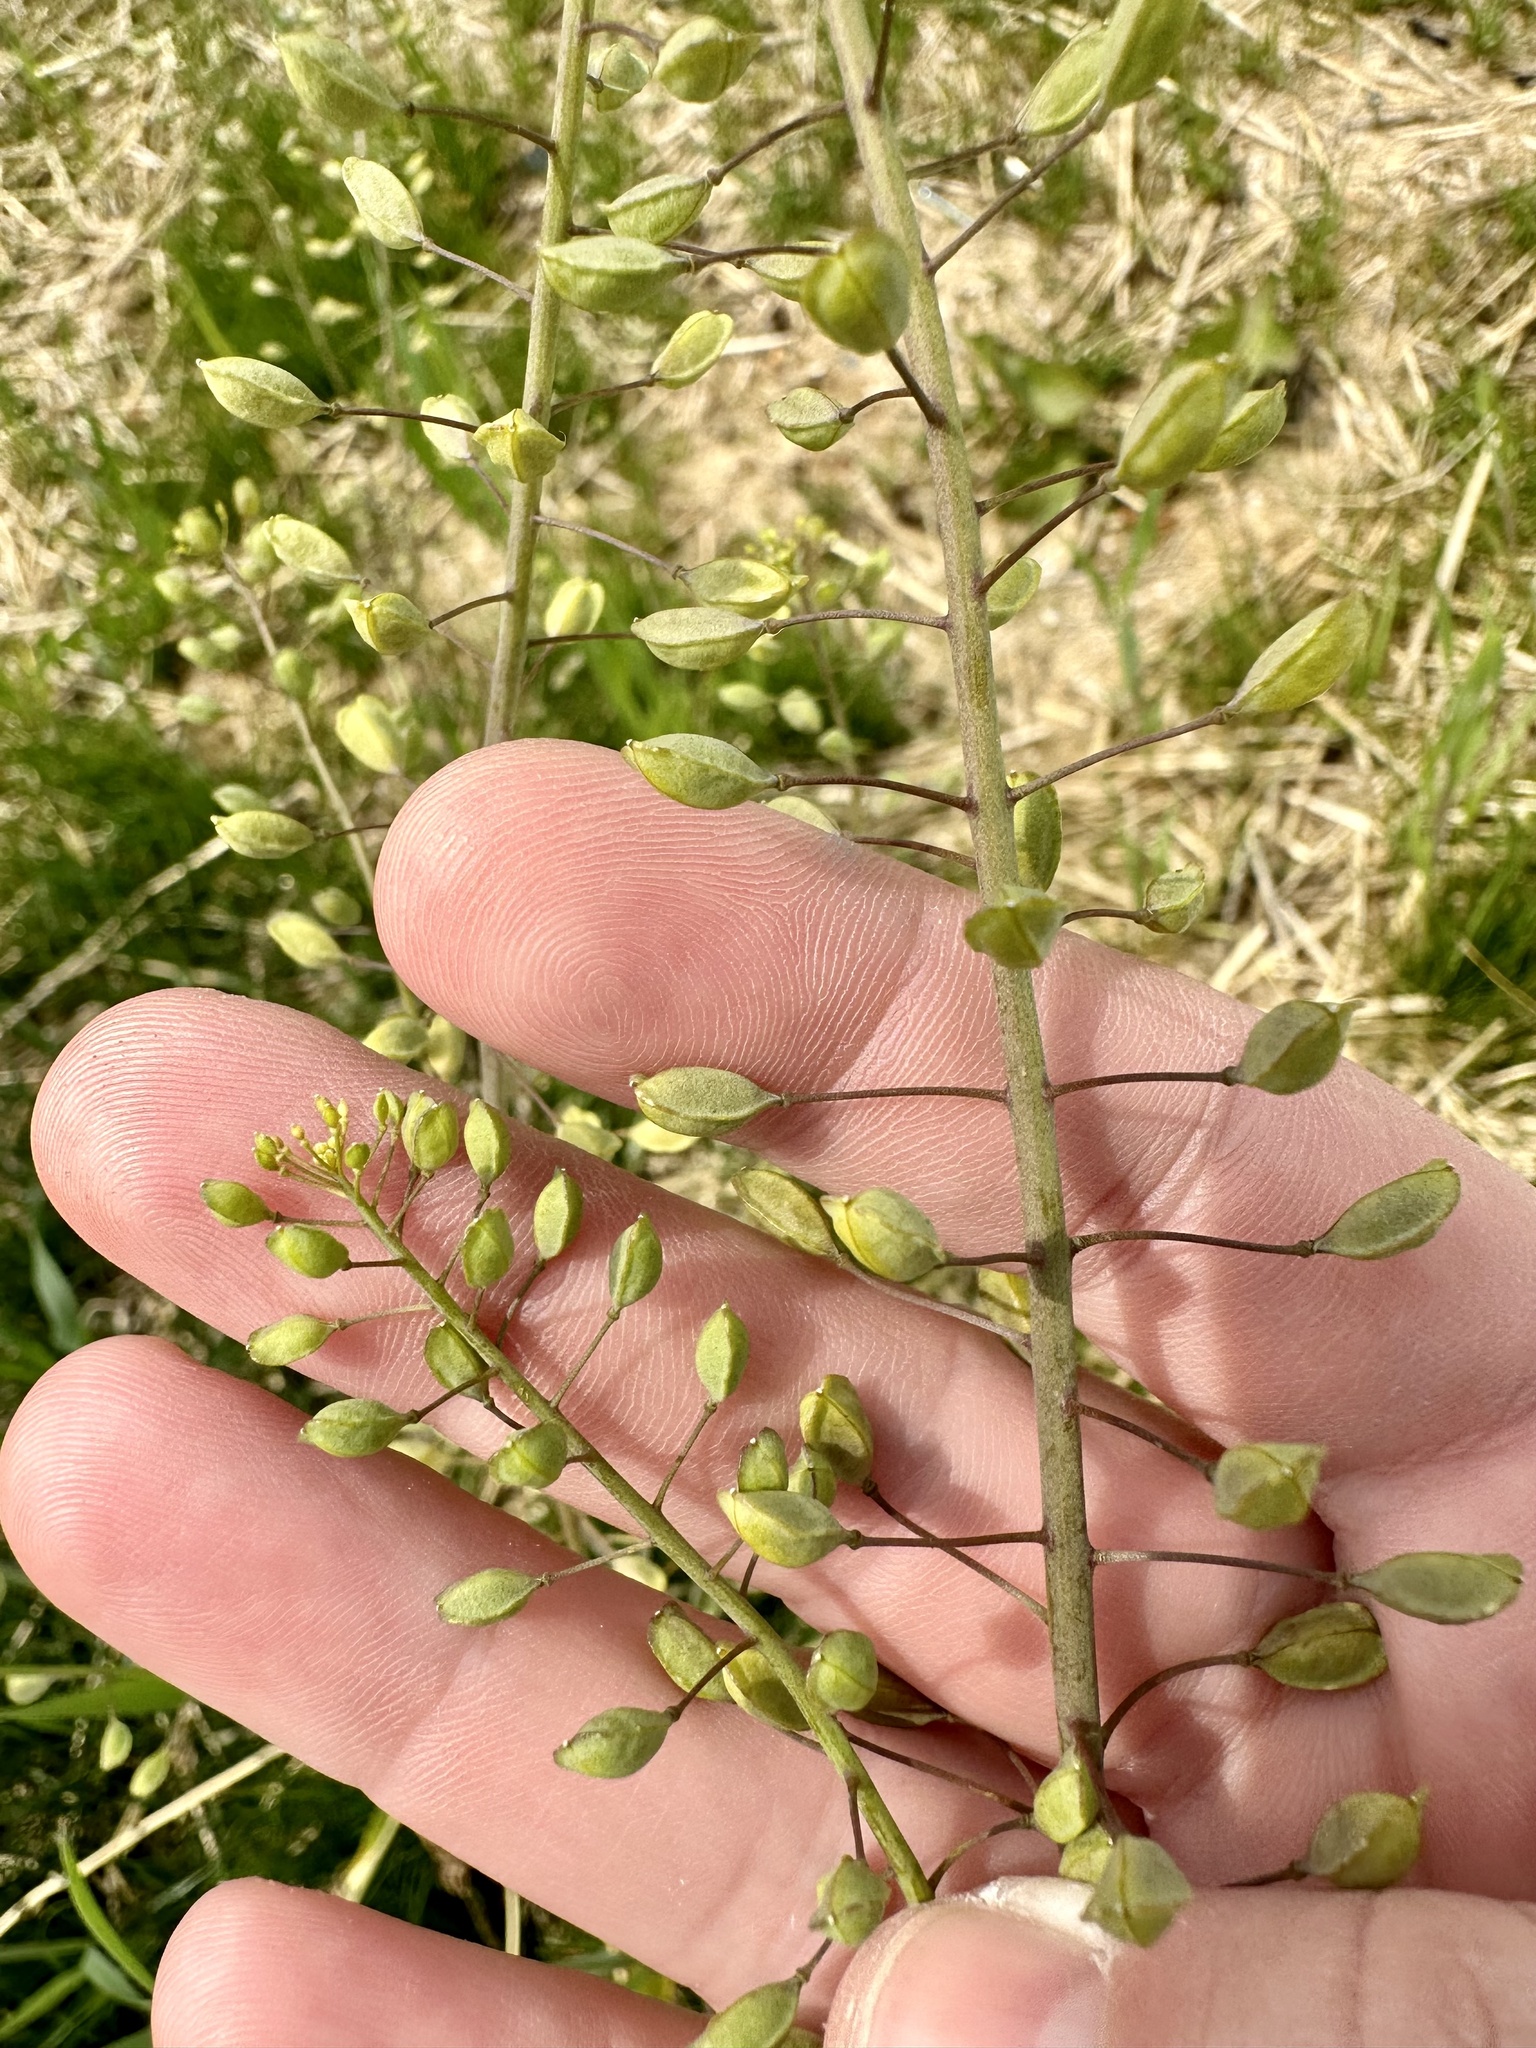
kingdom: Plantae
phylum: Tracheophyta
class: Magnoliopsida
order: Brassicales
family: Brassicaceae
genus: Mummenhoffia
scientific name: Mummenhoffia alliacea
